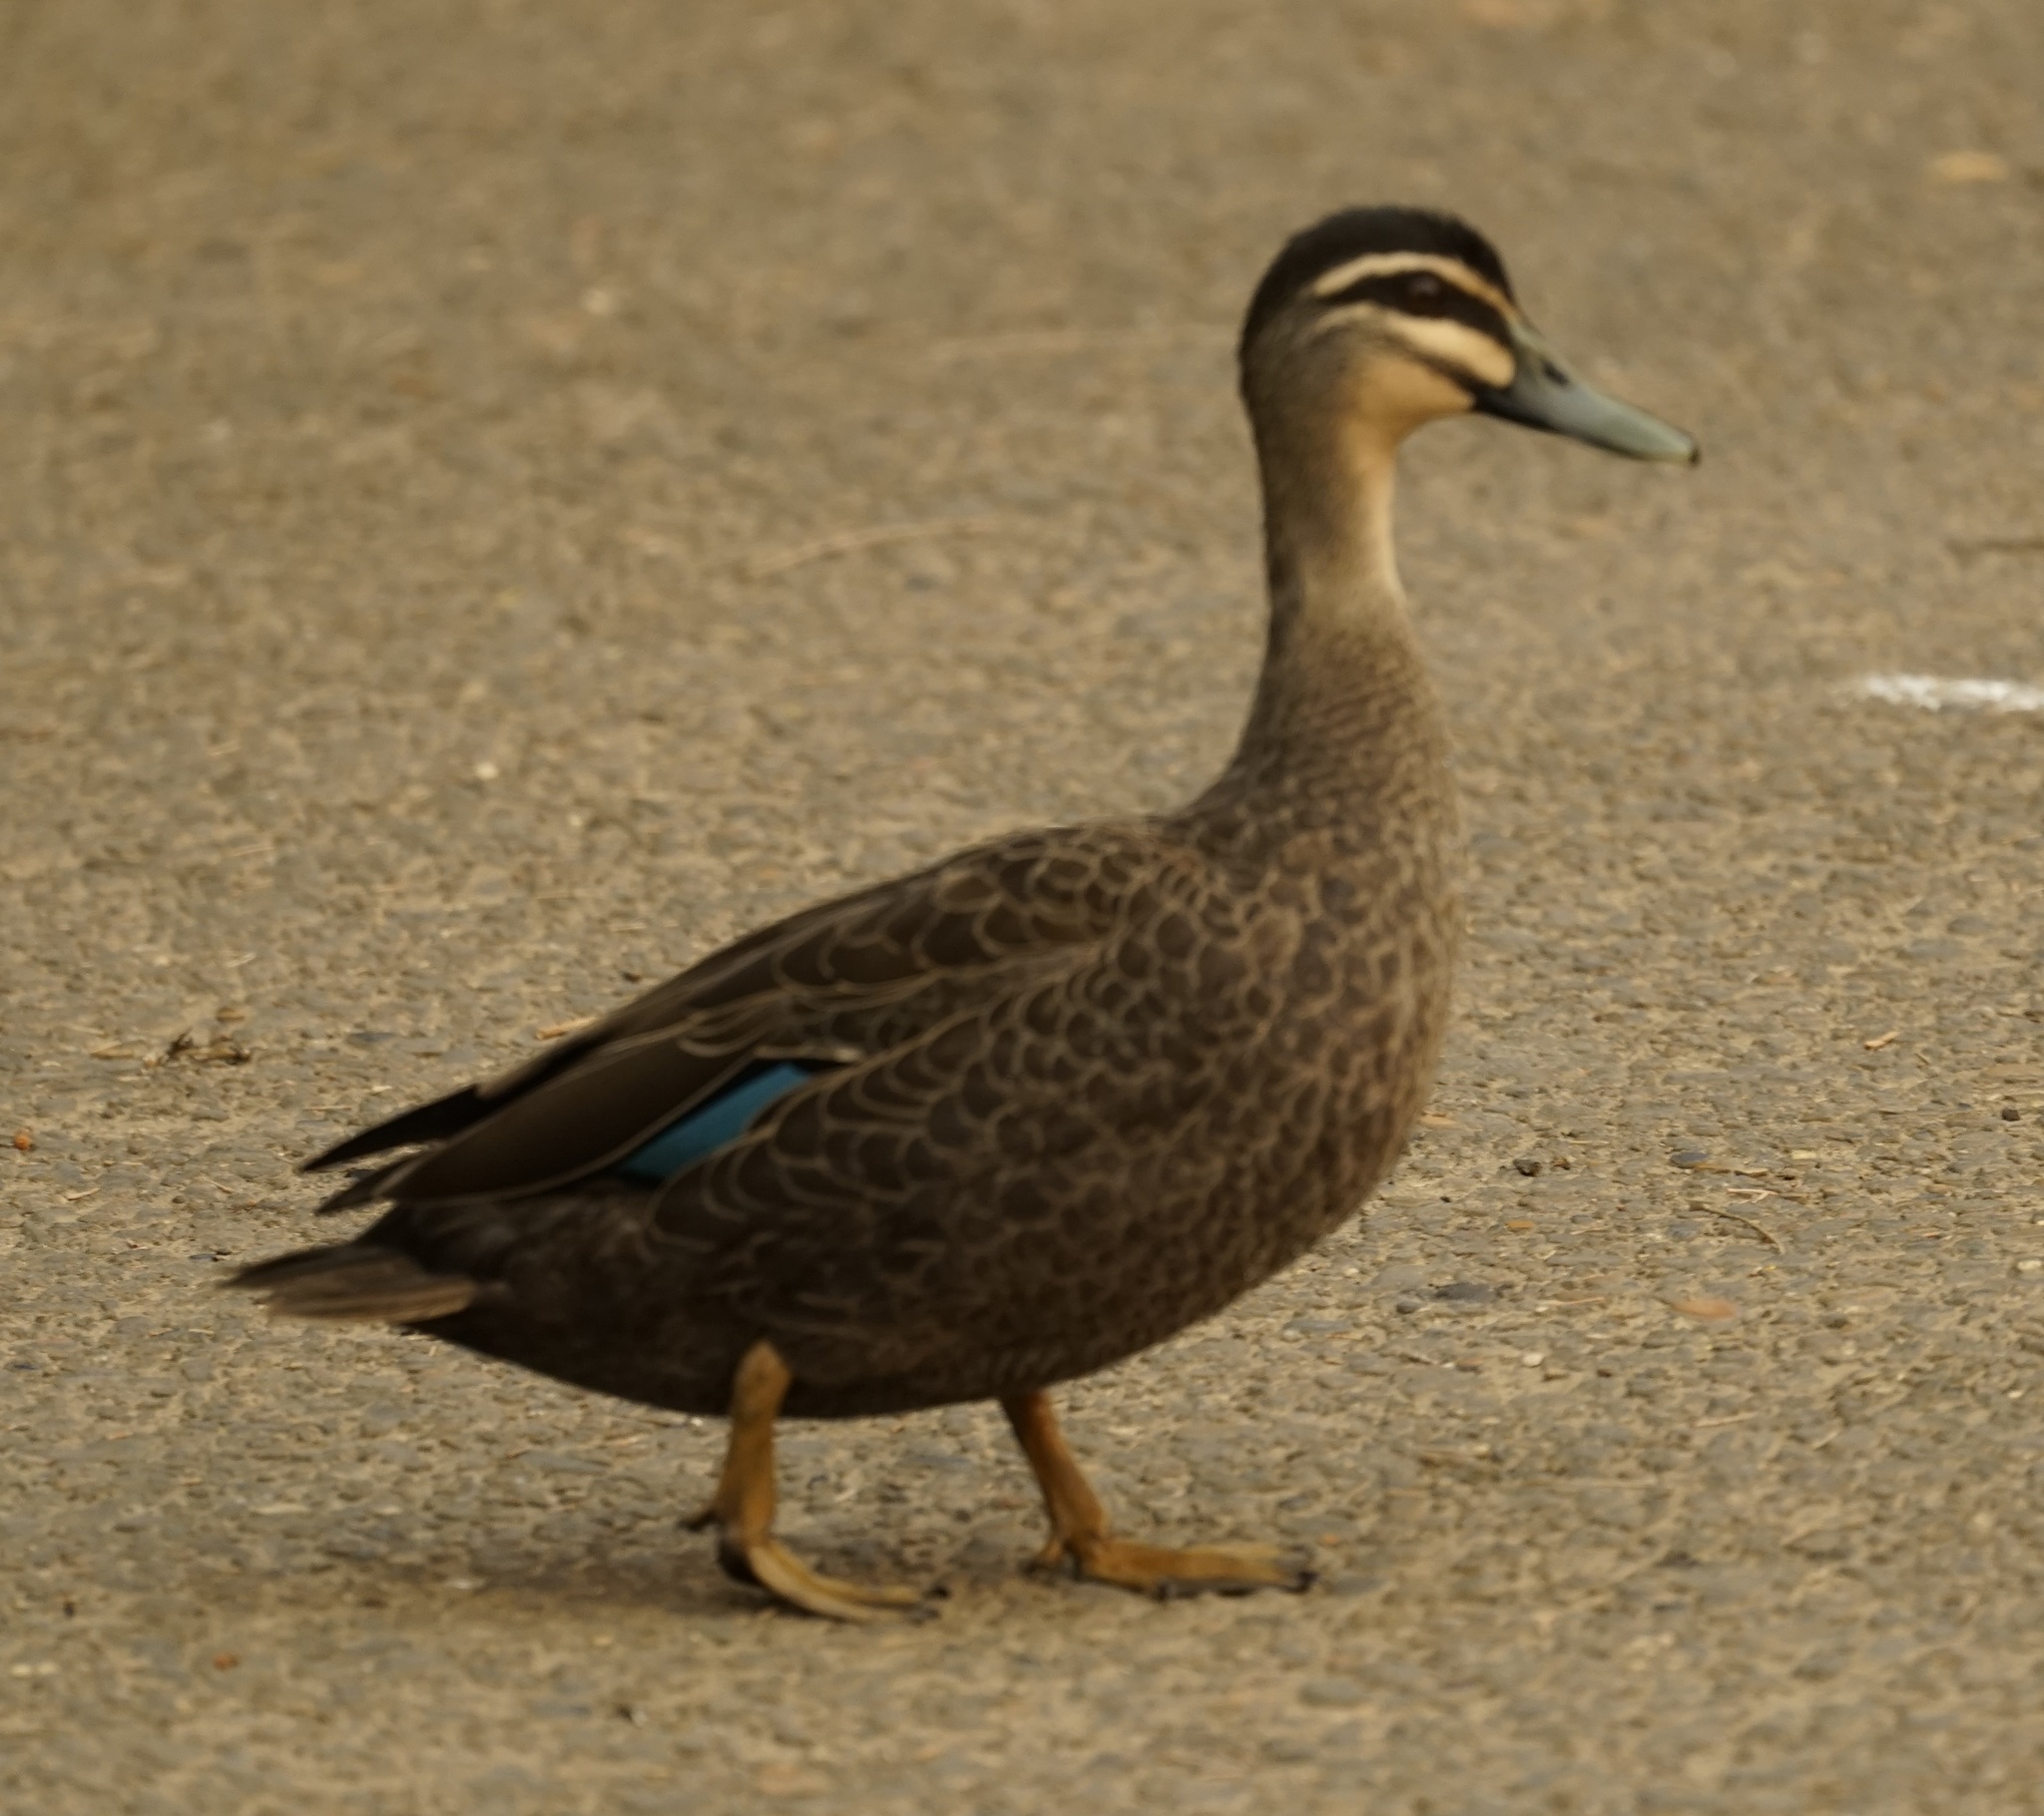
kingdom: Animalia
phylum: Chordata
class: Aves
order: Anseriformes
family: Anatidae
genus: Anas
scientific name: Anas superciliosa
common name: Pacific black duck
